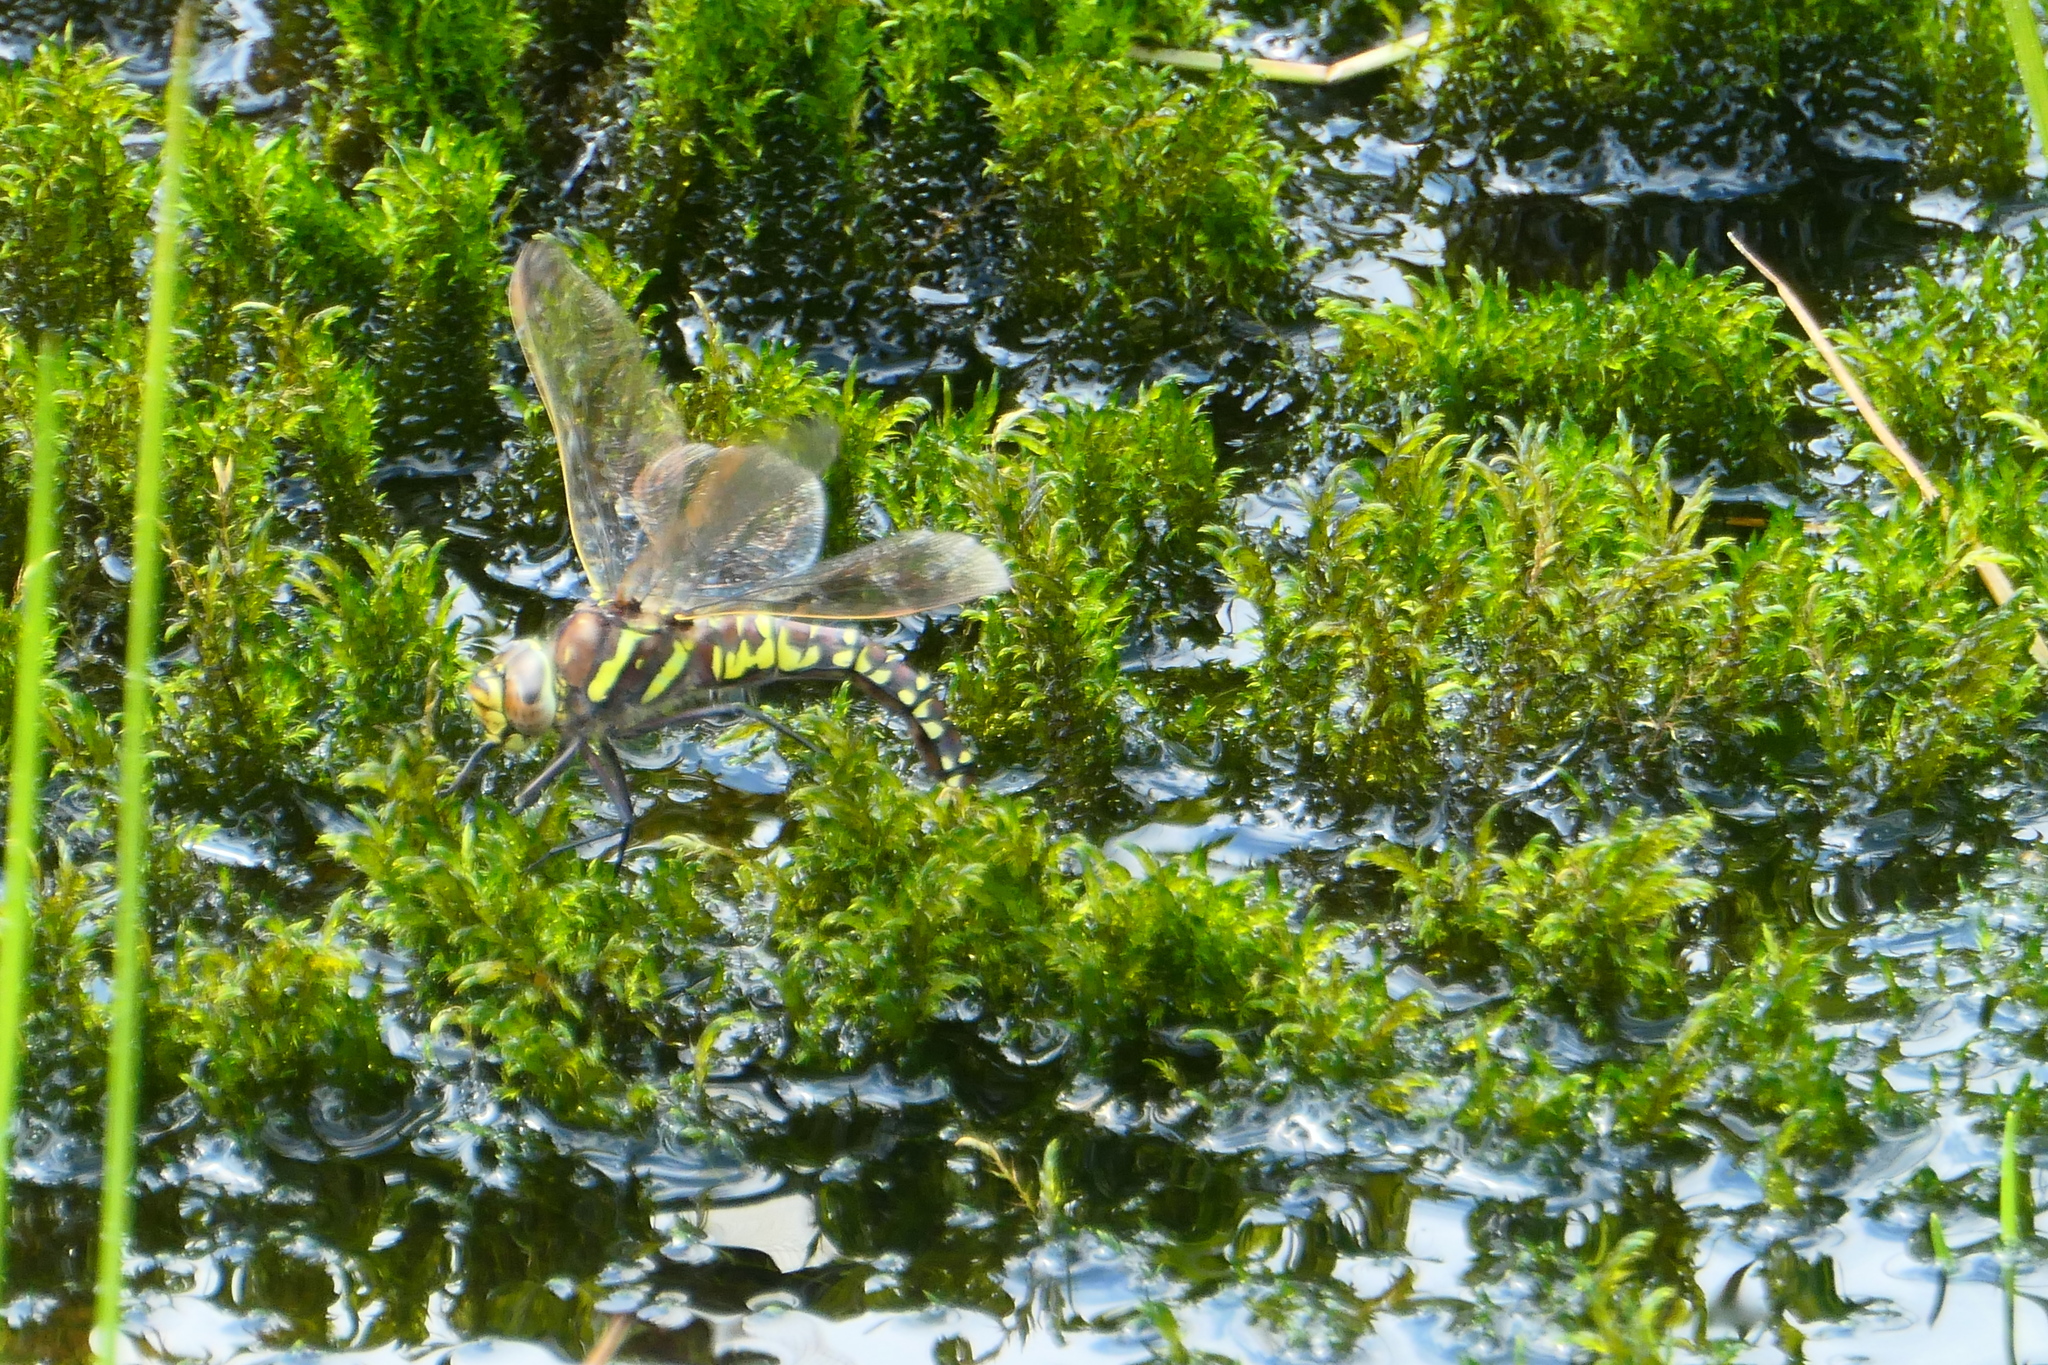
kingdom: Animalia
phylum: Arthropoda
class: Insecta
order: Odonata
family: Aeshnidae
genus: Aeshna
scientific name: Aeshna juncea
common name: Moorland hawker
